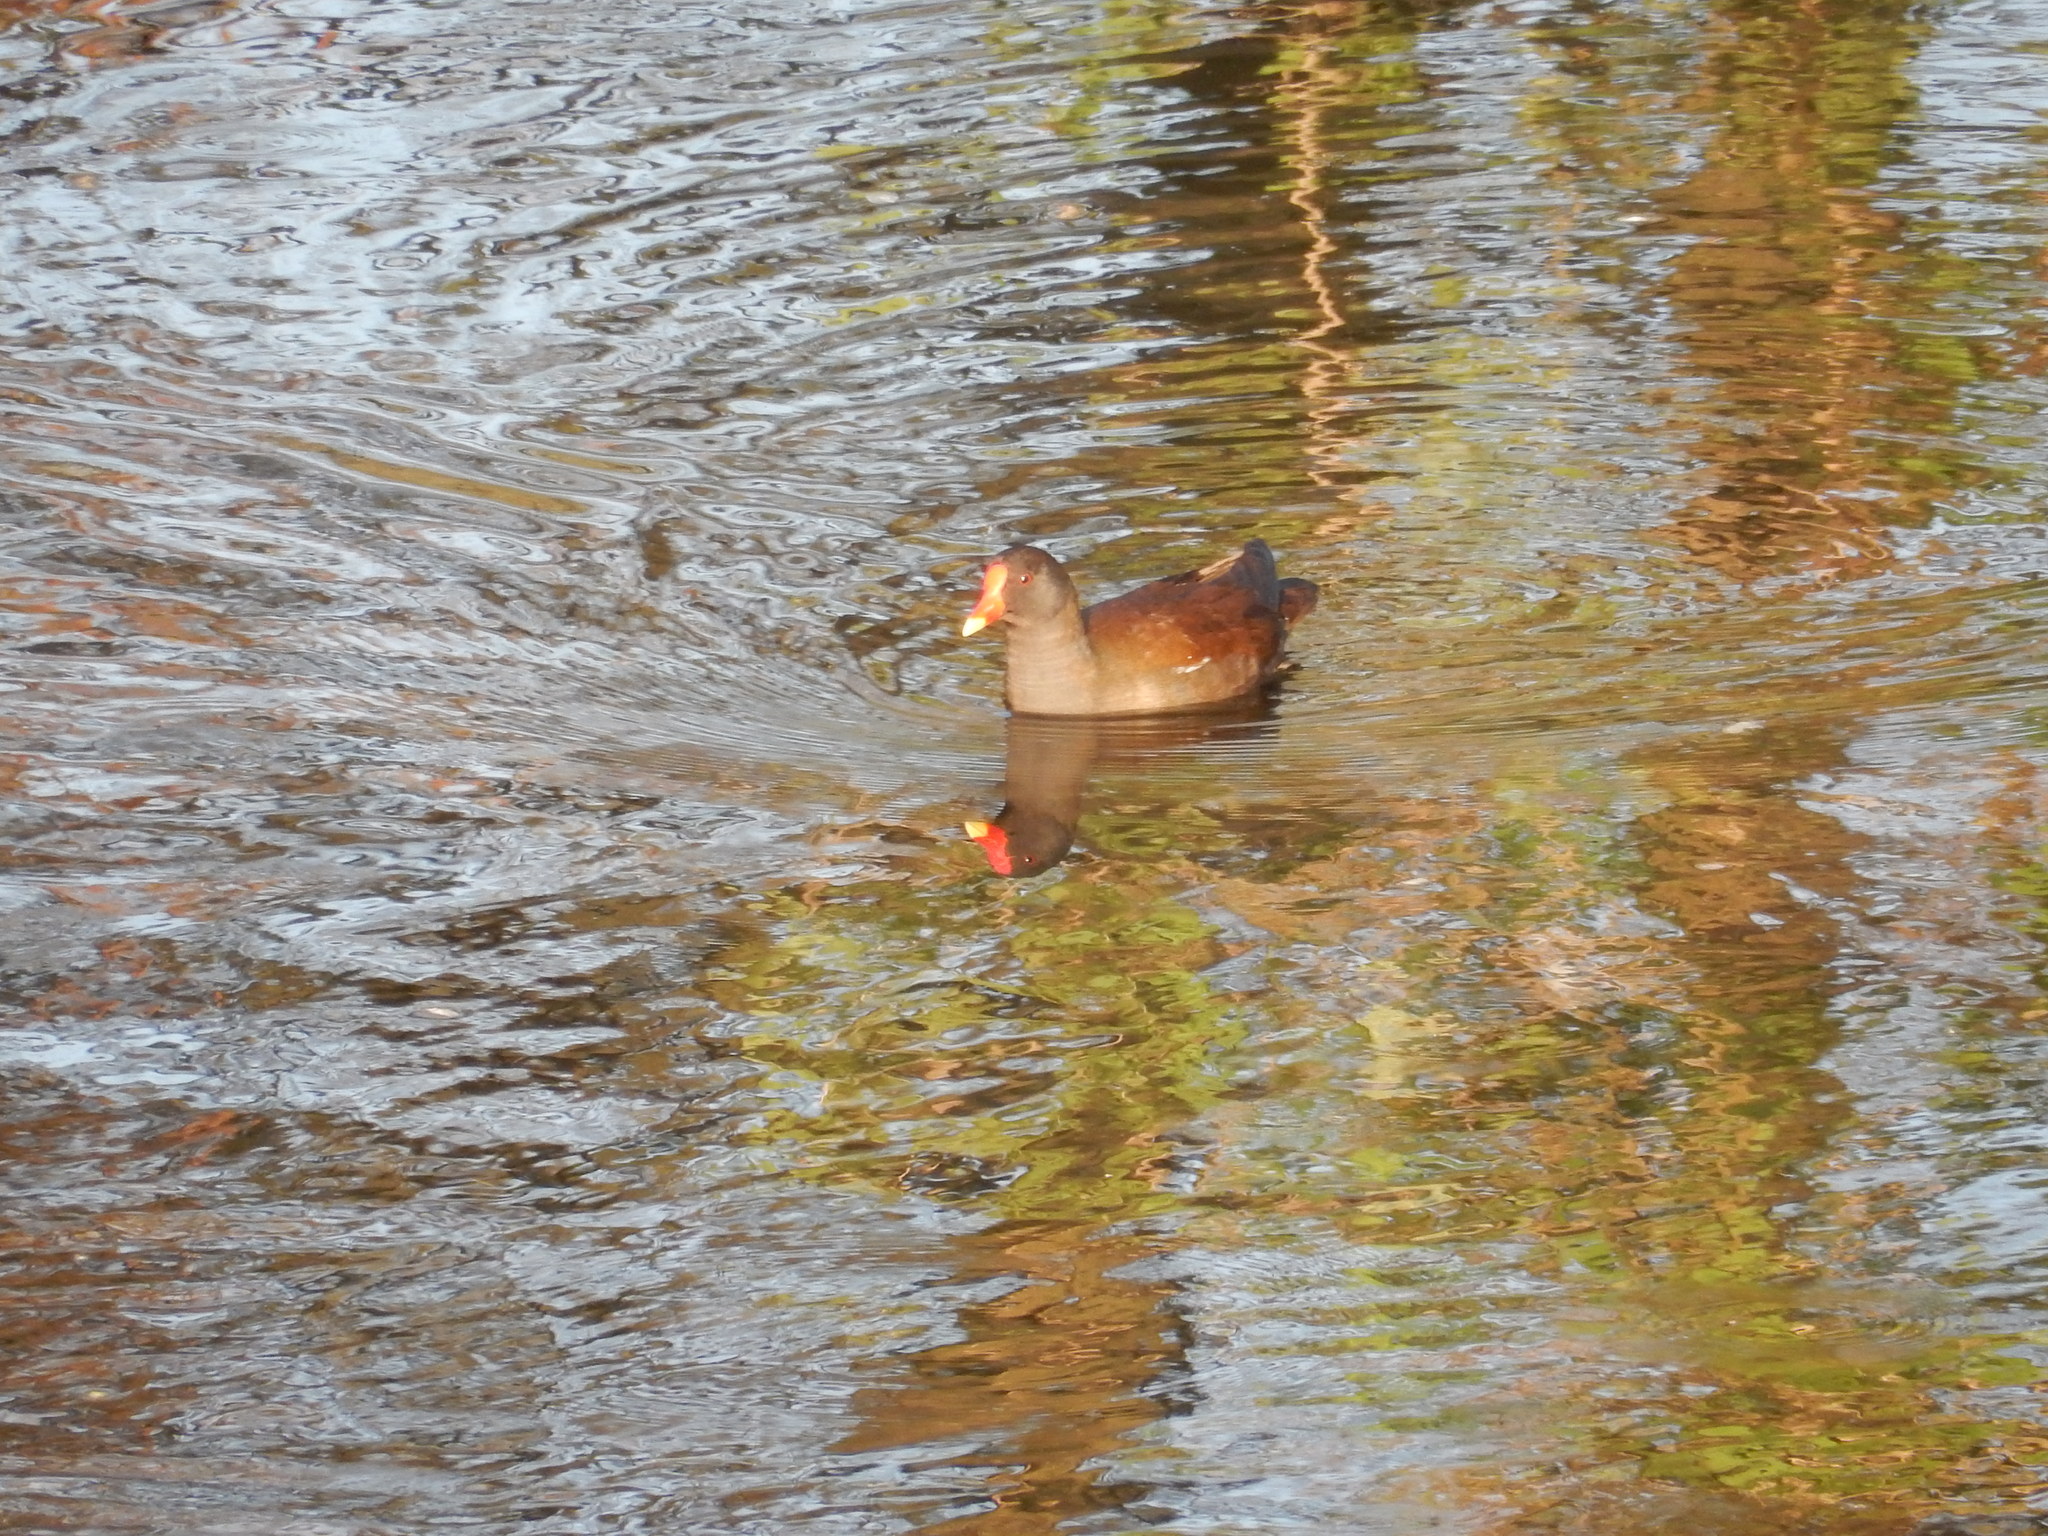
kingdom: Animalia
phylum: Chordata
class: Aves
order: Gruiformes
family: Rallidae
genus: Gallinula
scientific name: Gallinula chloropus
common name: Common moorhen
